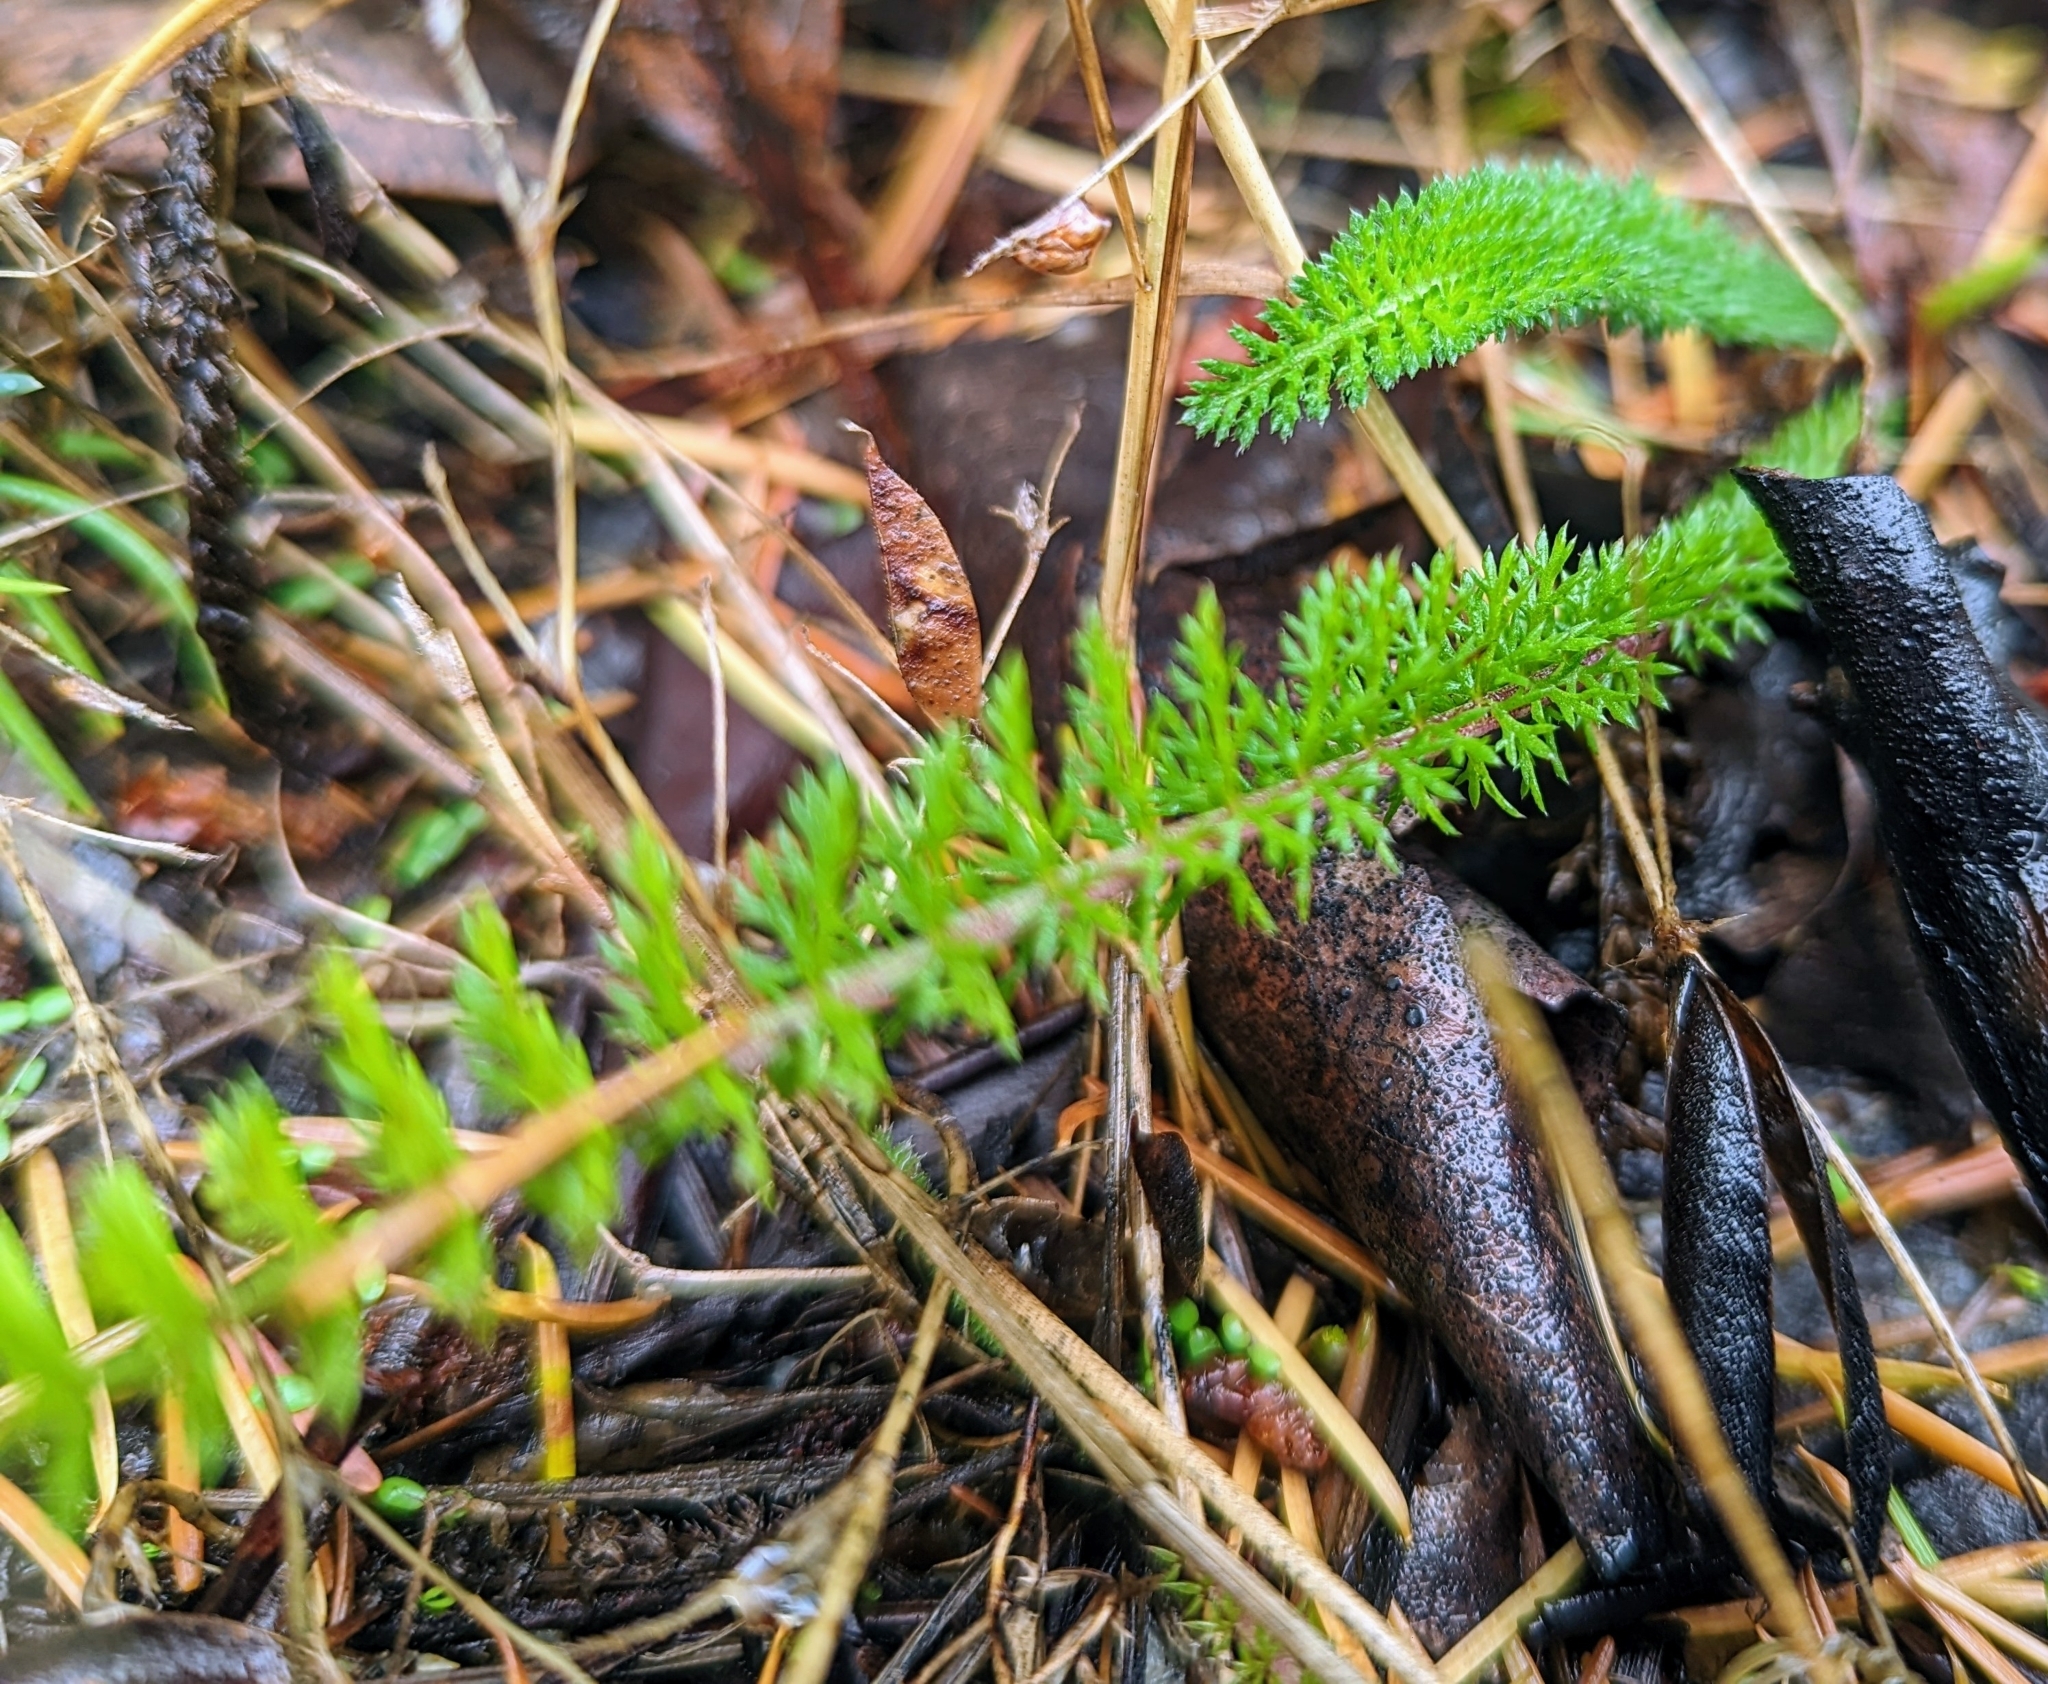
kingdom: Plantae
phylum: Tracheophyta
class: Magnoliopsida
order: Asterales
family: Asteraceae
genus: Achillea
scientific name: Achillea millefolium
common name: Yarrow
